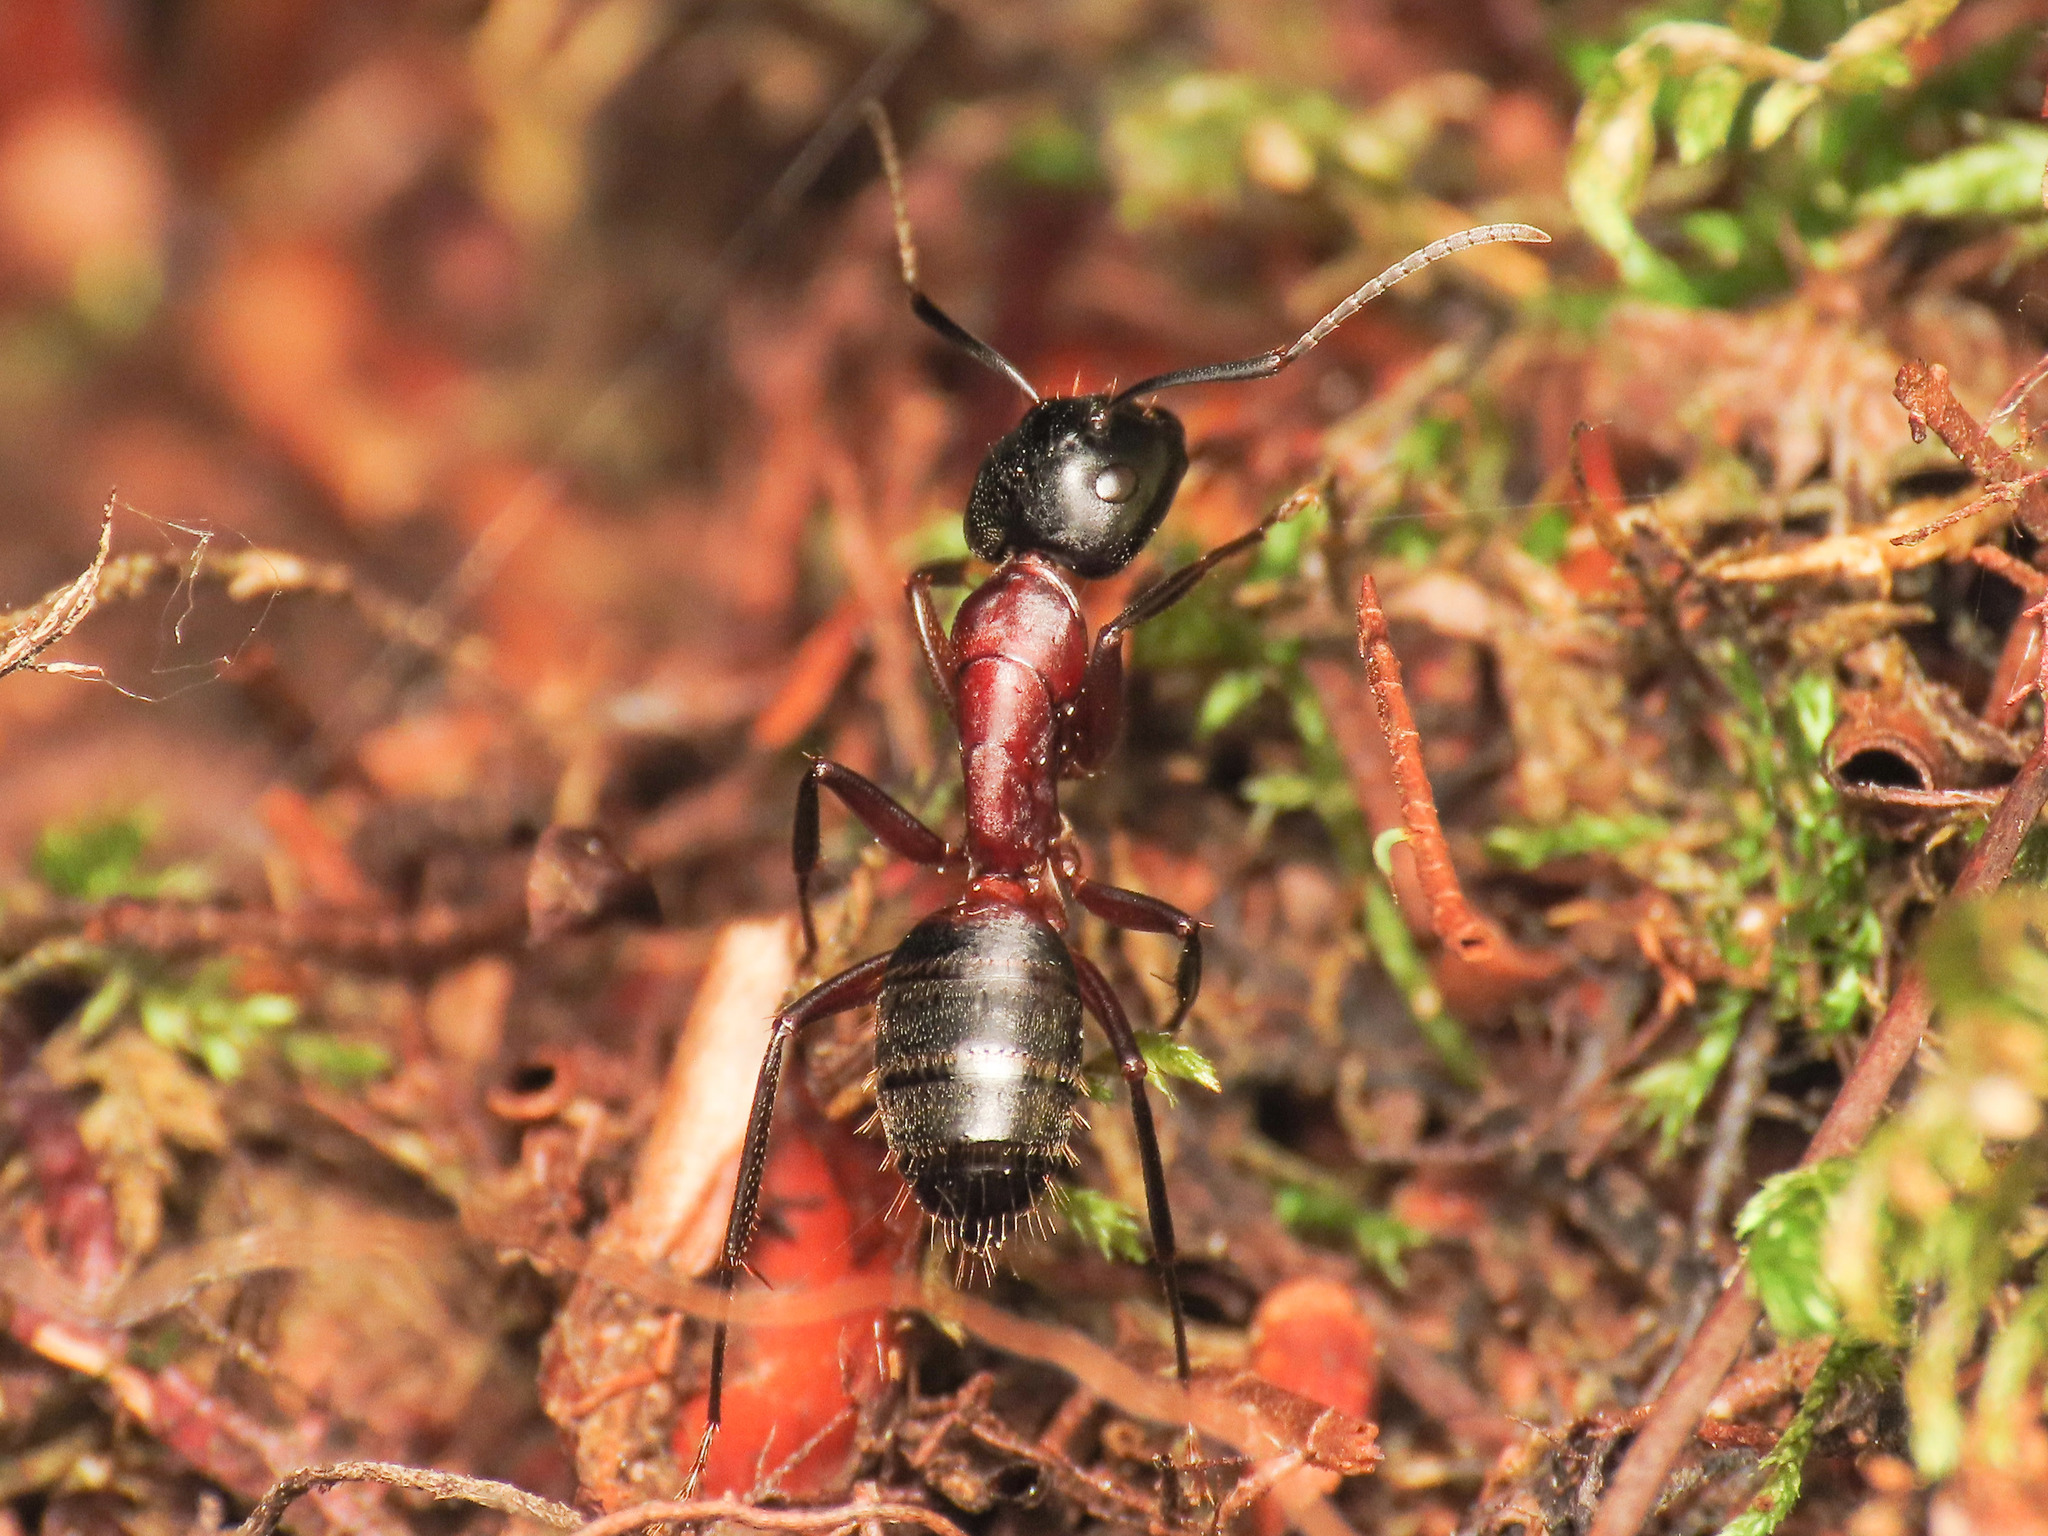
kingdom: Animalia
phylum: Arthropoda
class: Insecta
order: Hymenoptera
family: Formicidae
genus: Camponotus
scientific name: Camponotus ligniperdus
